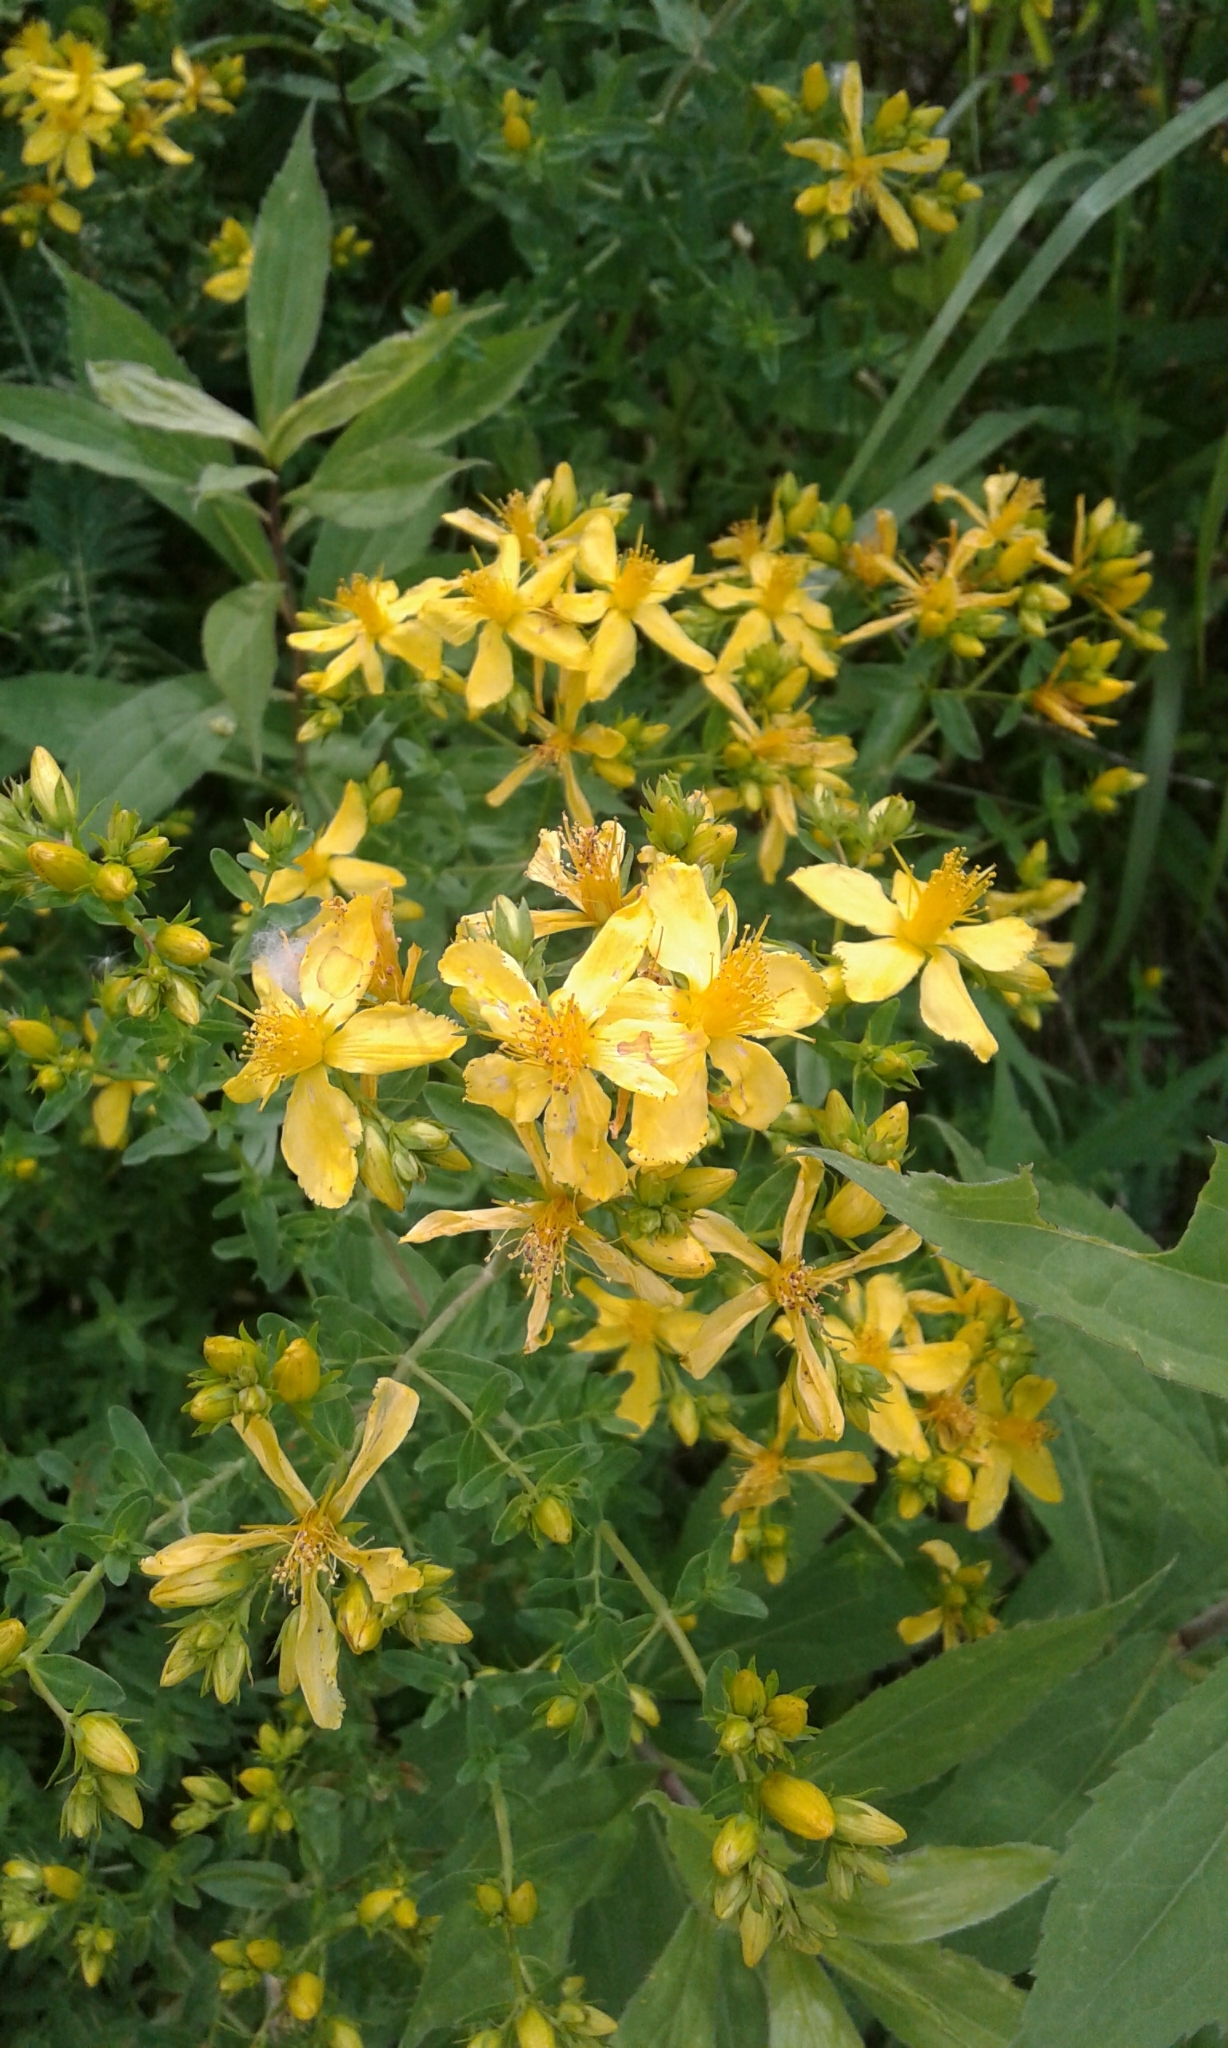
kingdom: Plantae
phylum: Tracheophyta
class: Magnoliopsida
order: Malpighiales
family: Hypericaceae
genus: Hypericum
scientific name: Hypericum perforatum
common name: Common st. johnswort
